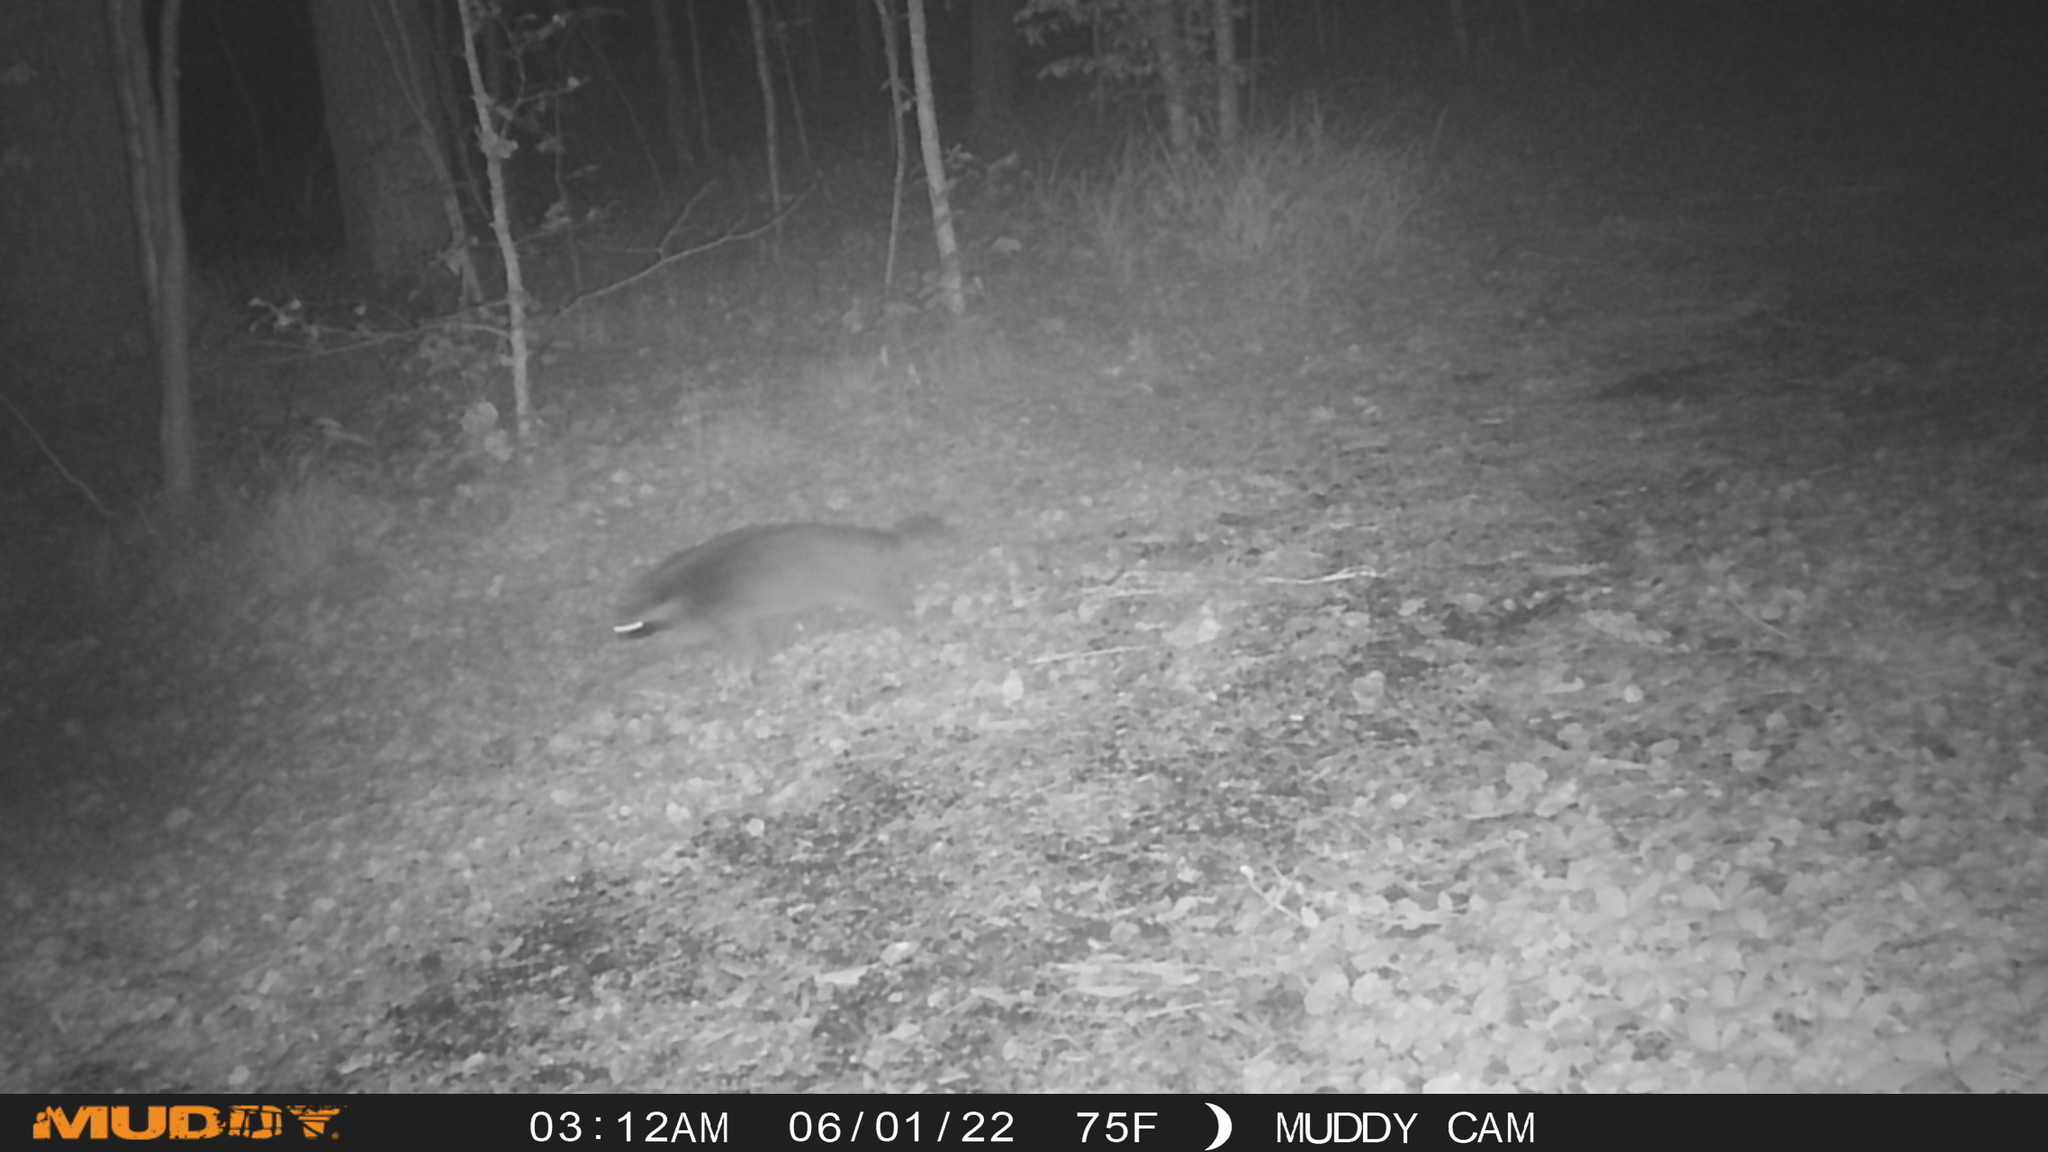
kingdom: Animalia
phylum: Chordata
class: Mammalia
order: Carnivora
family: Procyonidae
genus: Procyon
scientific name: Procyon lotor
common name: Raccoon
